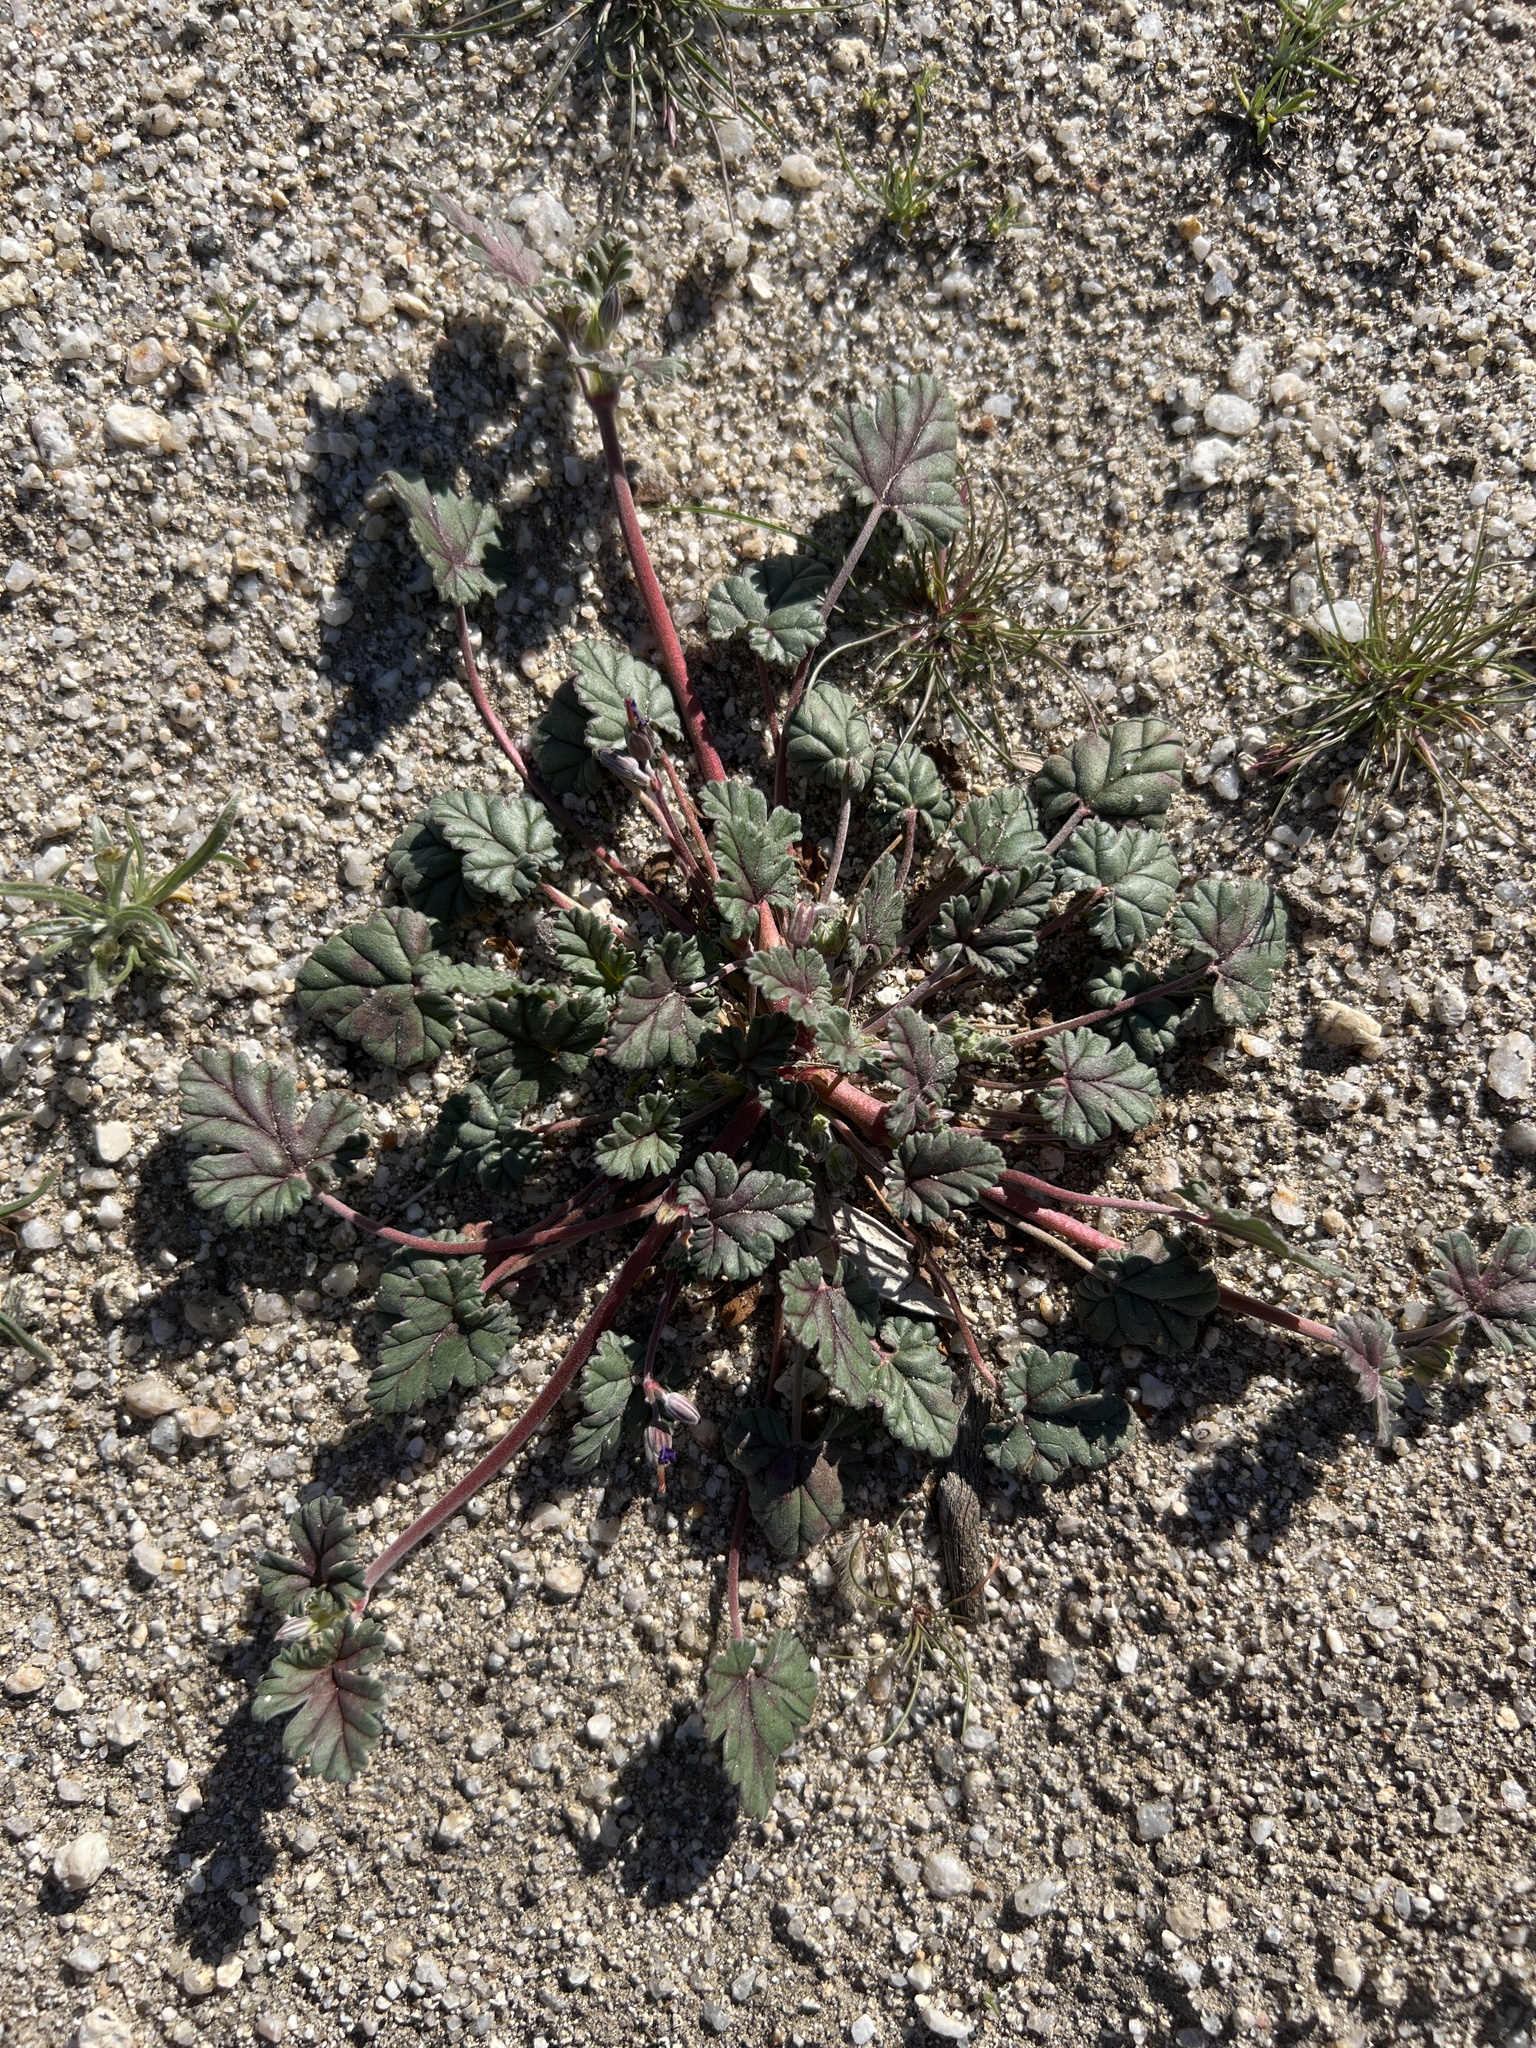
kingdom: Plantae
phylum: Tracheophyta
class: Magnoliopsida
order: Geraniales
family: Geraniaceae
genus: Erodium
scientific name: Erodium texanum
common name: Texas stork's-bill
